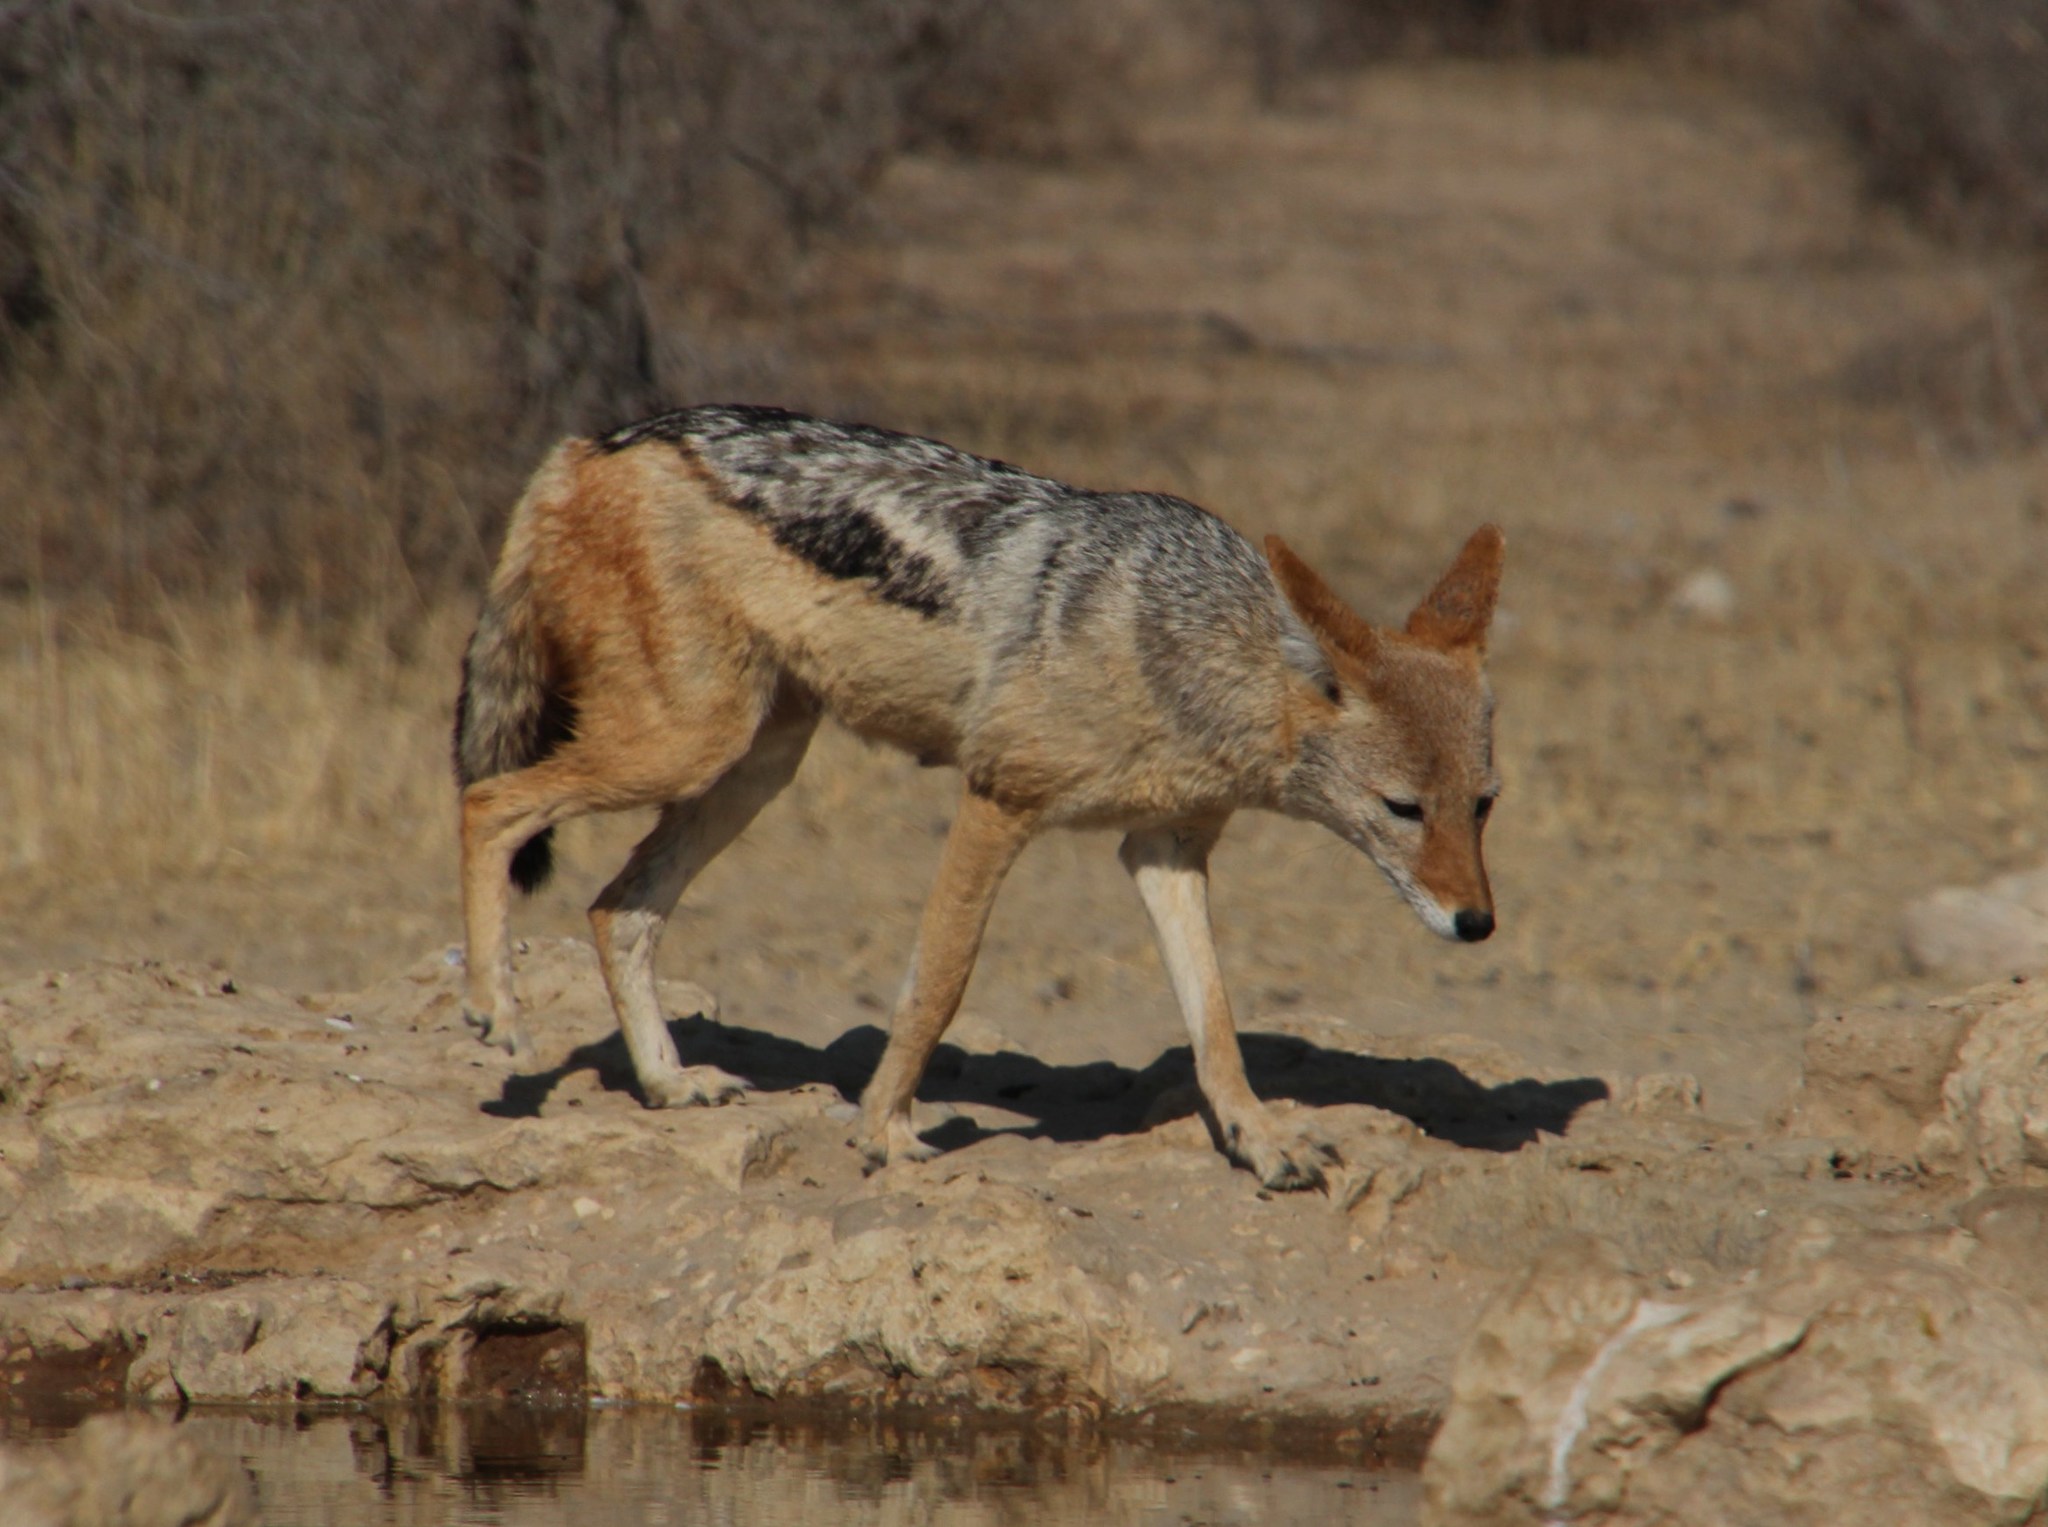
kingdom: Animalia
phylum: Chordata
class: Mammalia
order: Carnivora
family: Canidae
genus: Lupulella
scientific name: Lupulella
